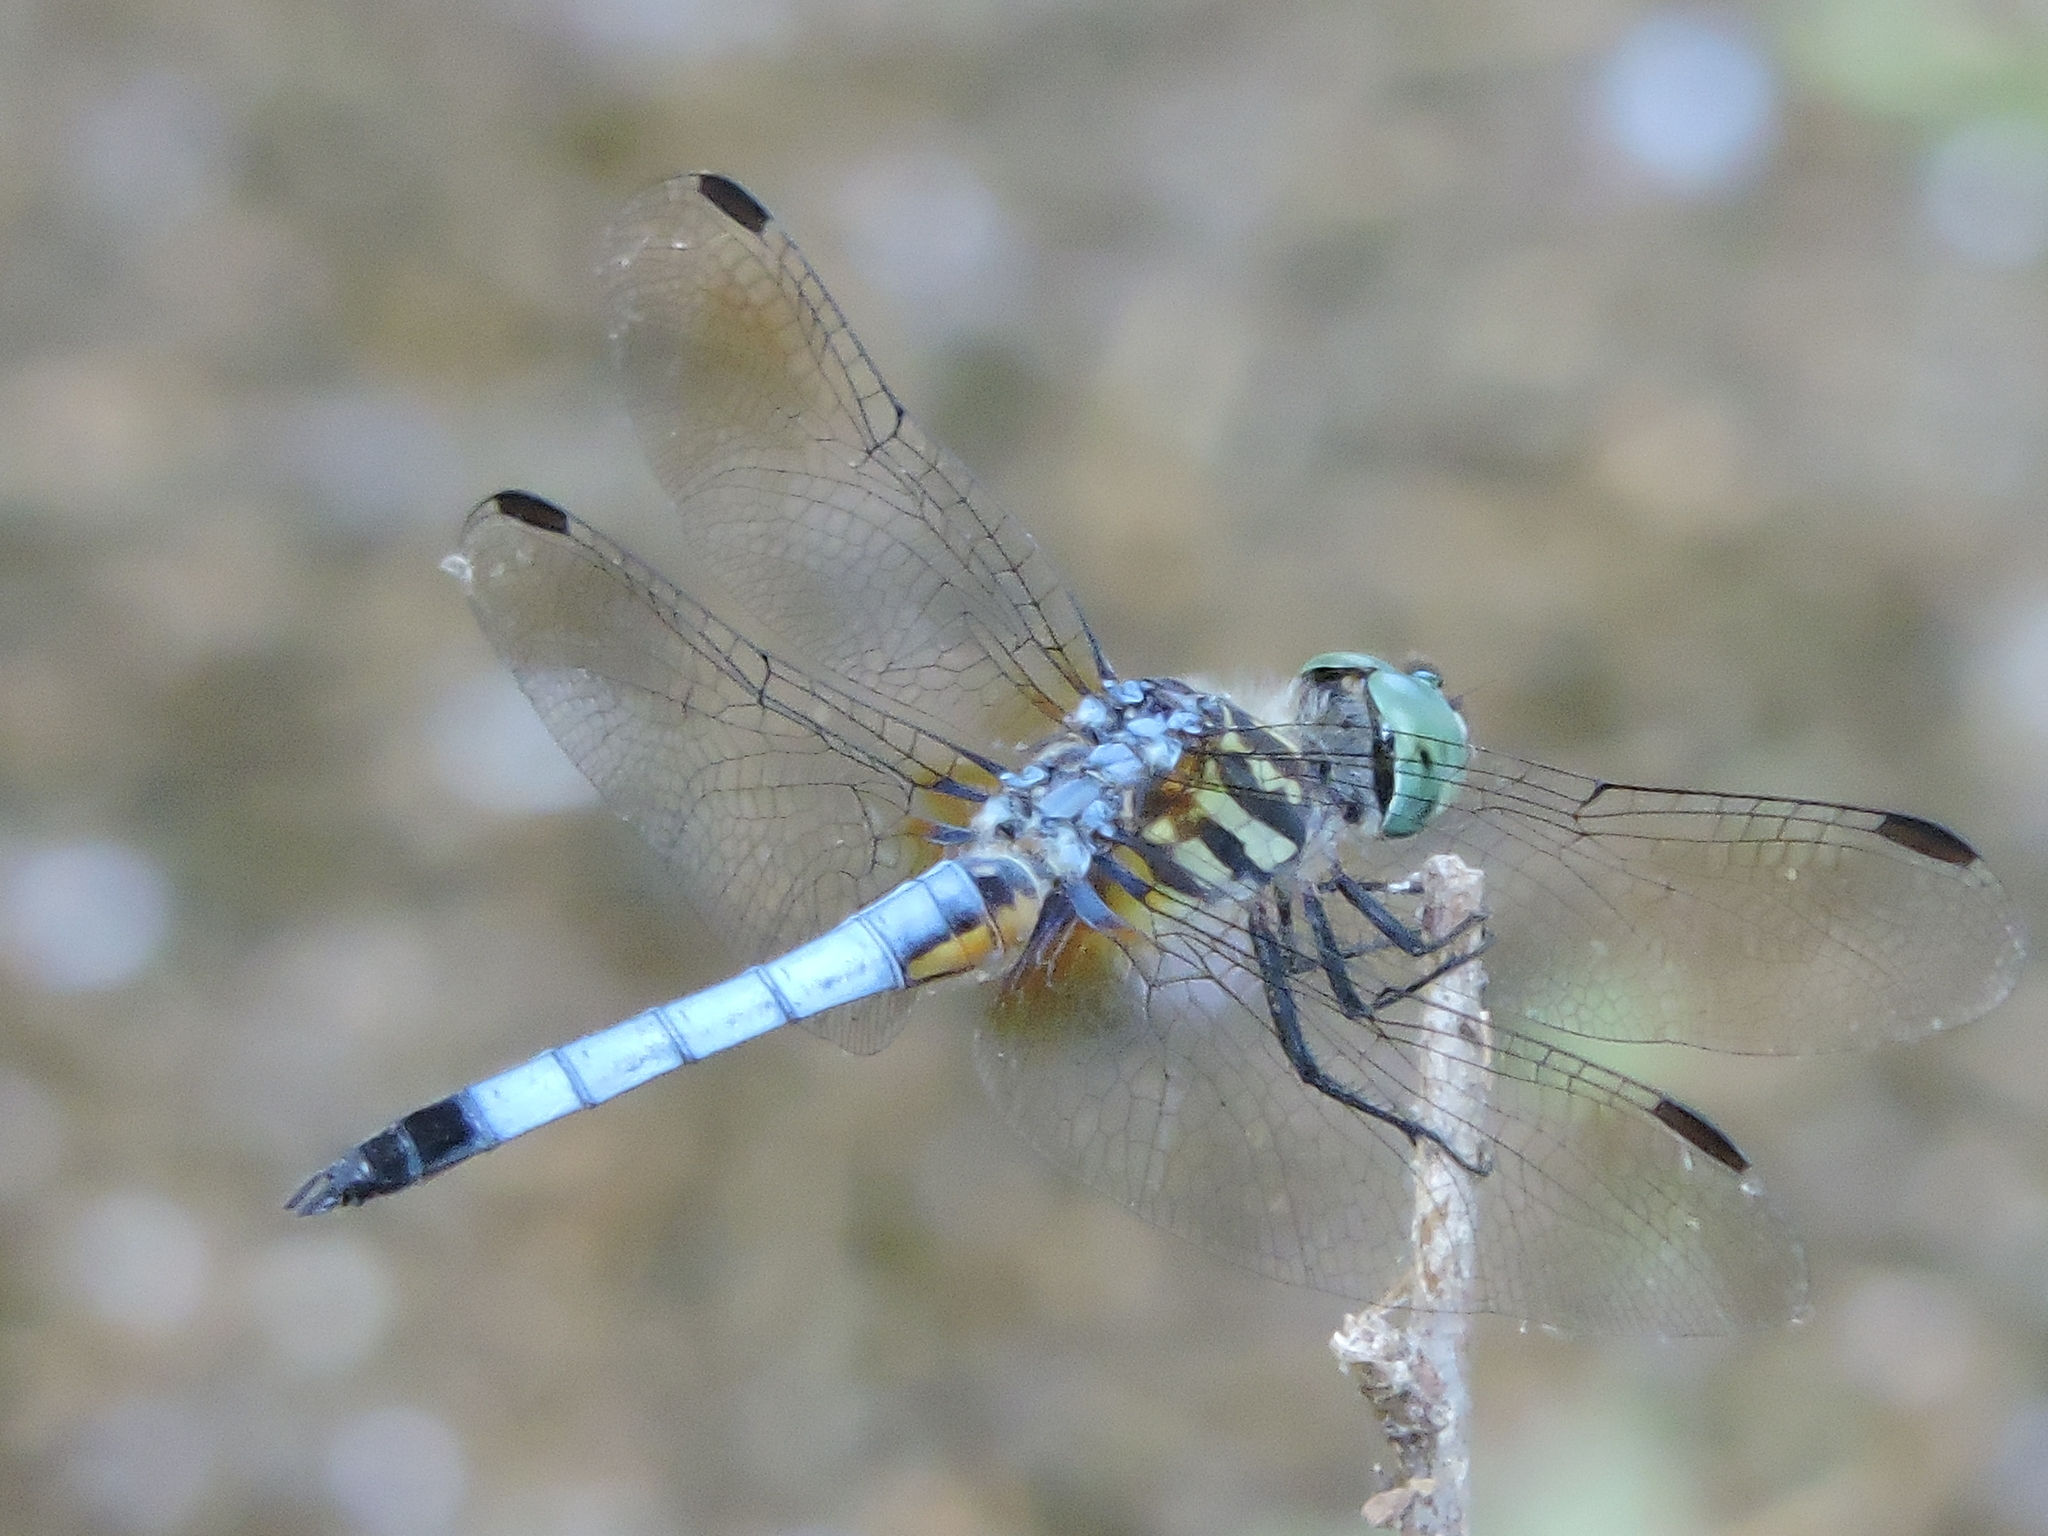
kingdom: Animalia
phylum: Arthropoda
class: Insecta
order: Odonata
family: Libellulidae
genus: Pachydiplax
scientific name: Pachydiplax longipennis
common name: Blue dasher
